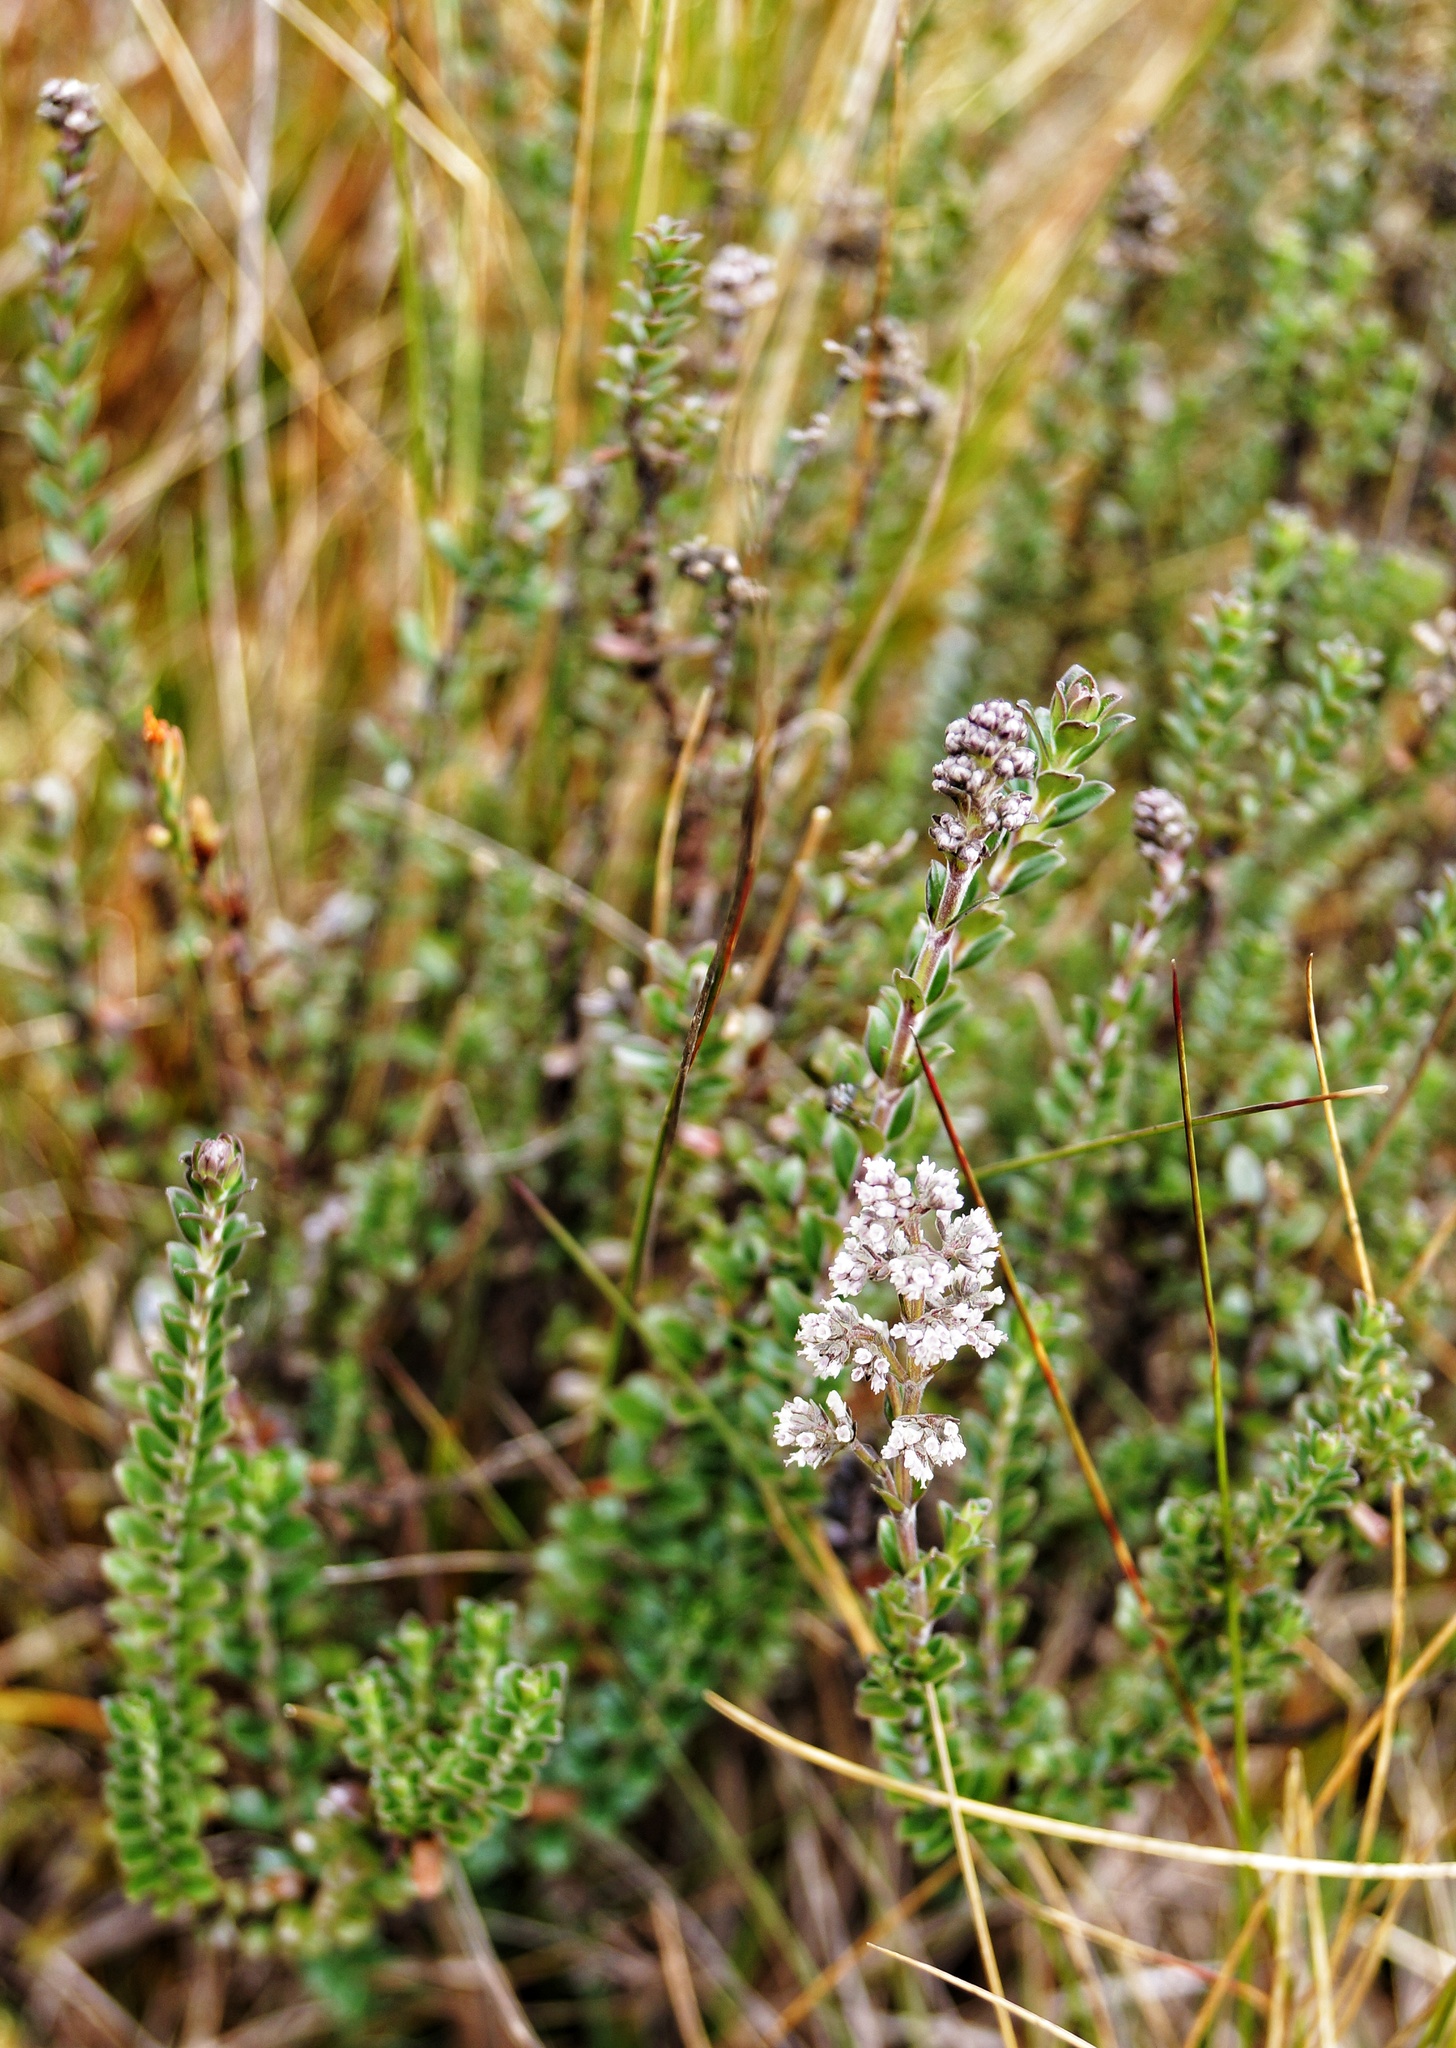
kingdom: Plantae
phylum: Tracheophyta
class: Magnoliopsida
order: Dipsacales
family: Caprifoliaceae
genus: Valeriana
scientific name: Valeriana microphylla
